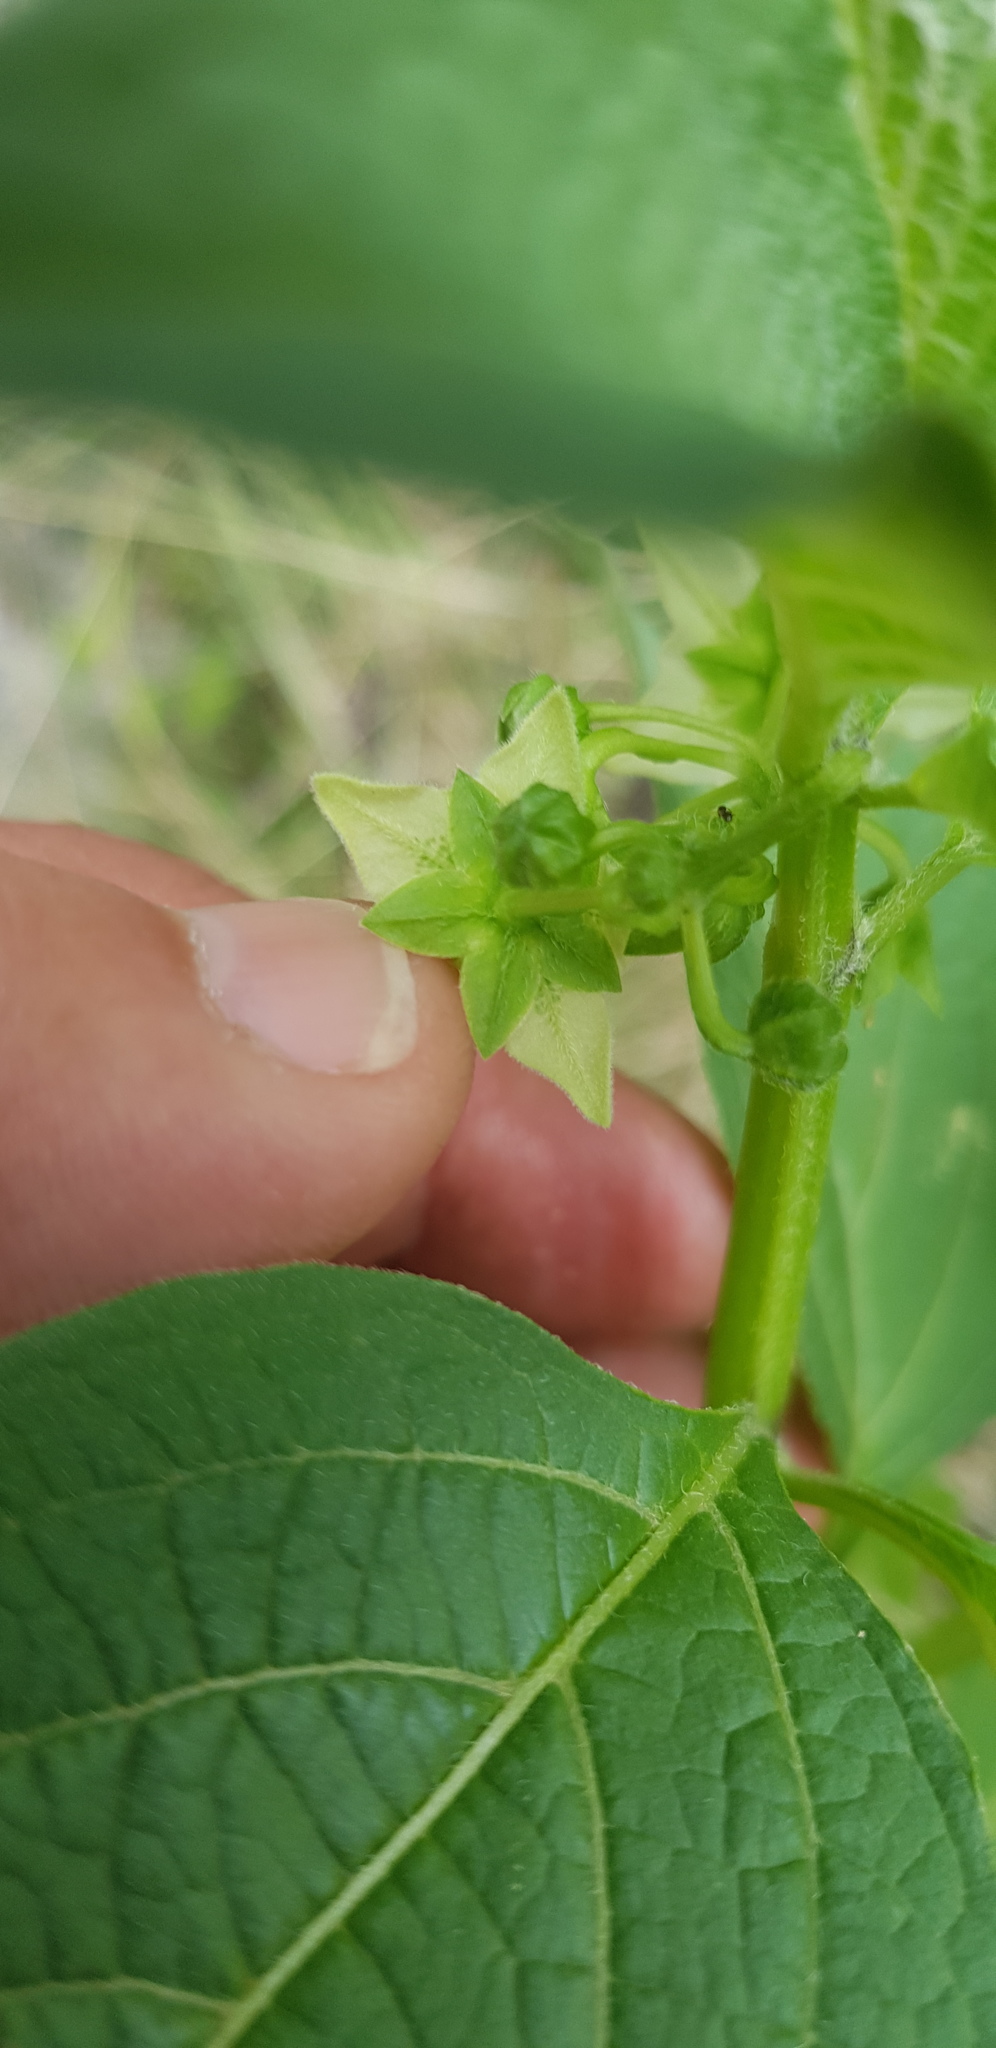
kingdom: Plantae
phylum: Tracheophyta
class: Magnoliopsida
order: Solanales
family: Solanaceae
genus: Jaltomata
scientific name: Jaltomata procumbens
